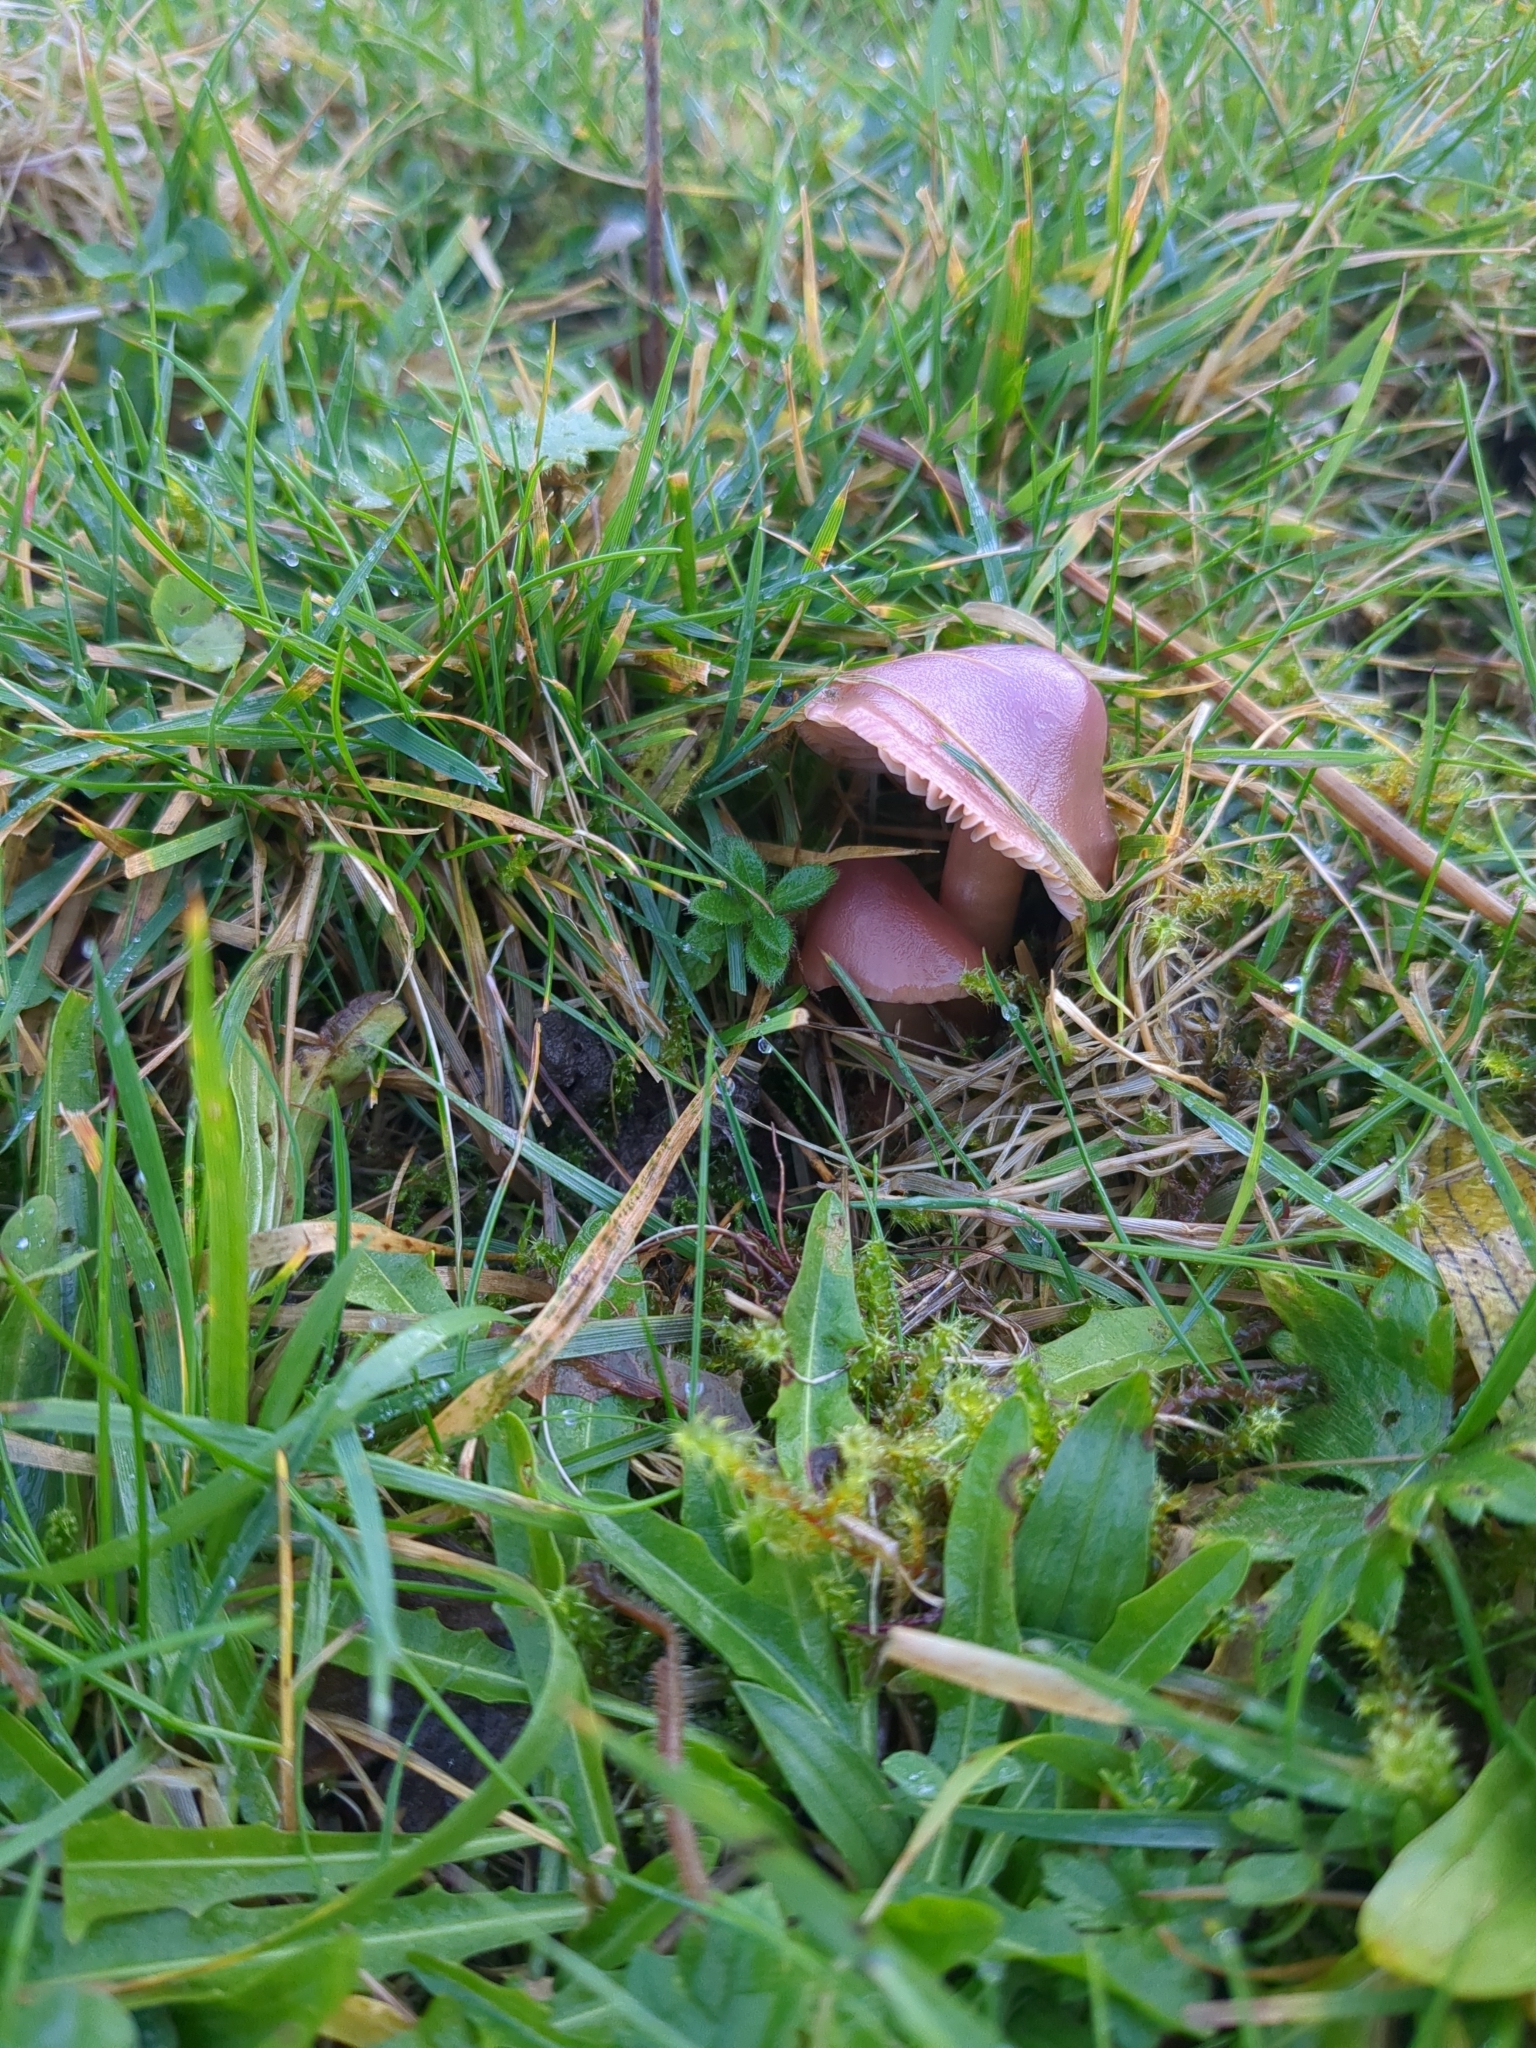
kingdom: Fungi
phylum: Basidiomycota
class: Agaricomycetes
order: Agaricales
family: Hygrophoraceae
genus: Gliophorus
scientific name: Gliophorus reginae
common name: Jubilee waxcap
